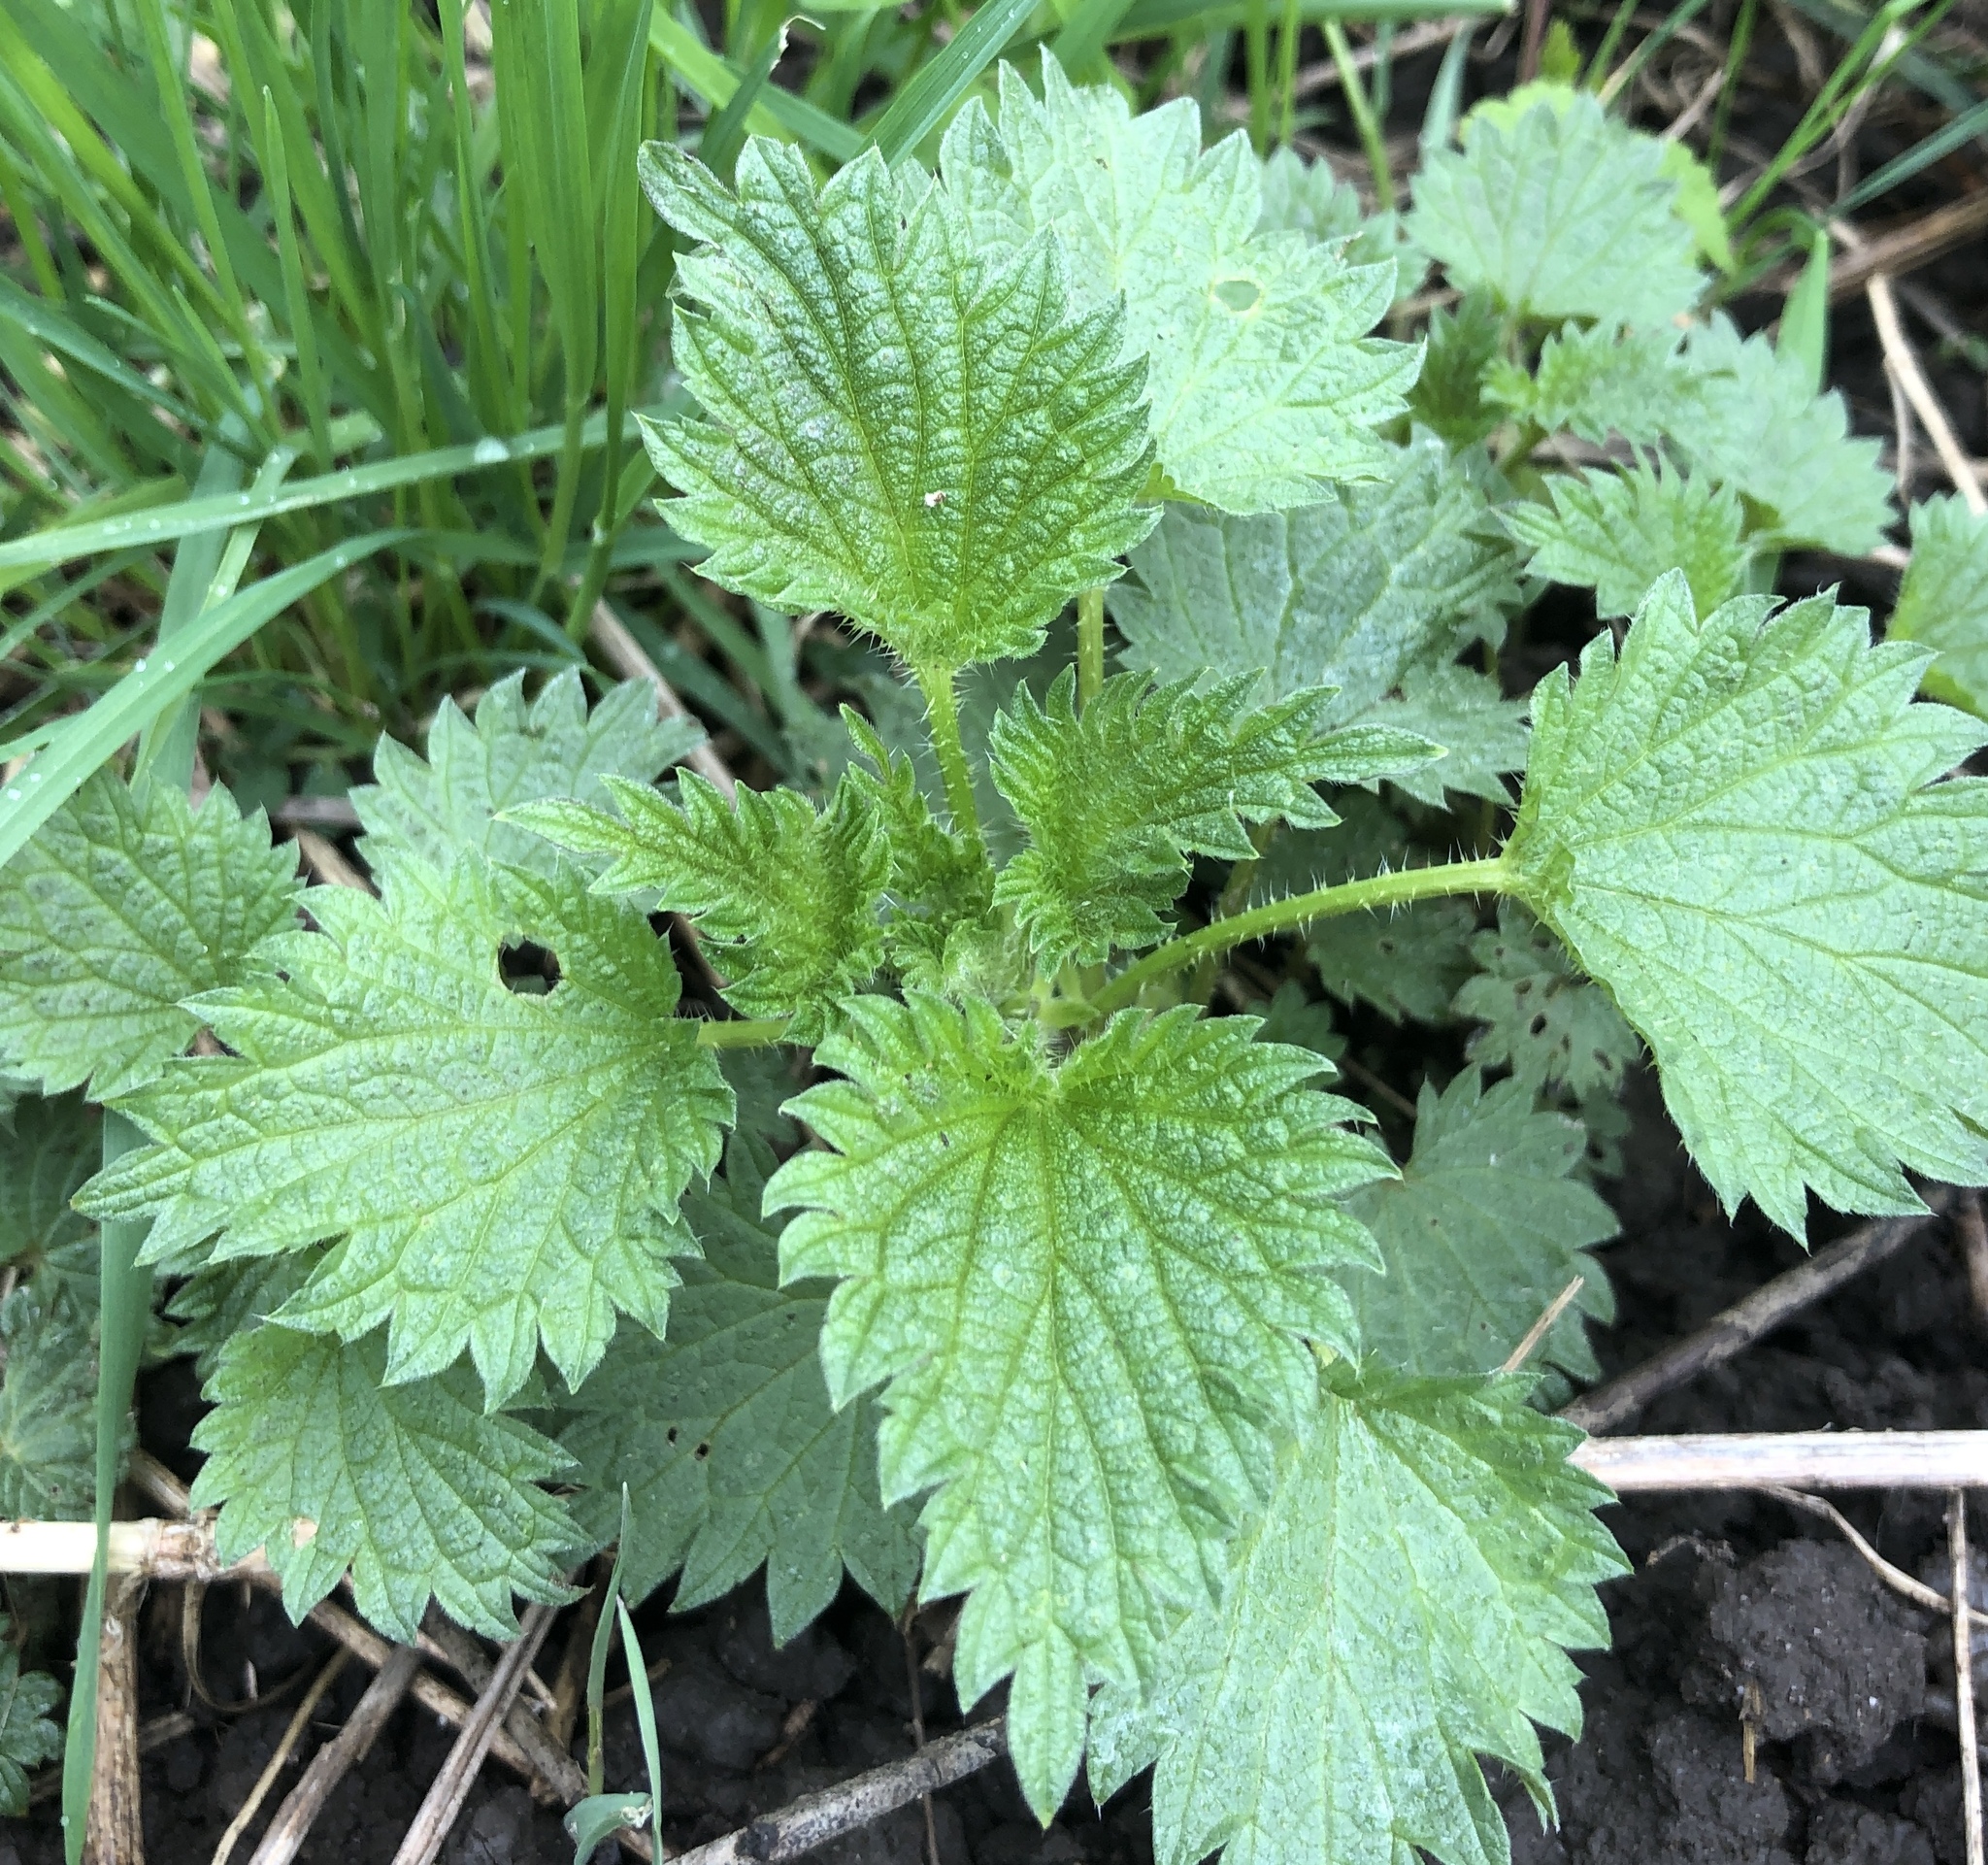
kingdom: Plantae
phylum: Tracheophyta
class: Magnoliopsida
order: Rosales
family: Urticaceae
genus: Urtica
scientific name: Urtica dioica
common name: Common nettle
